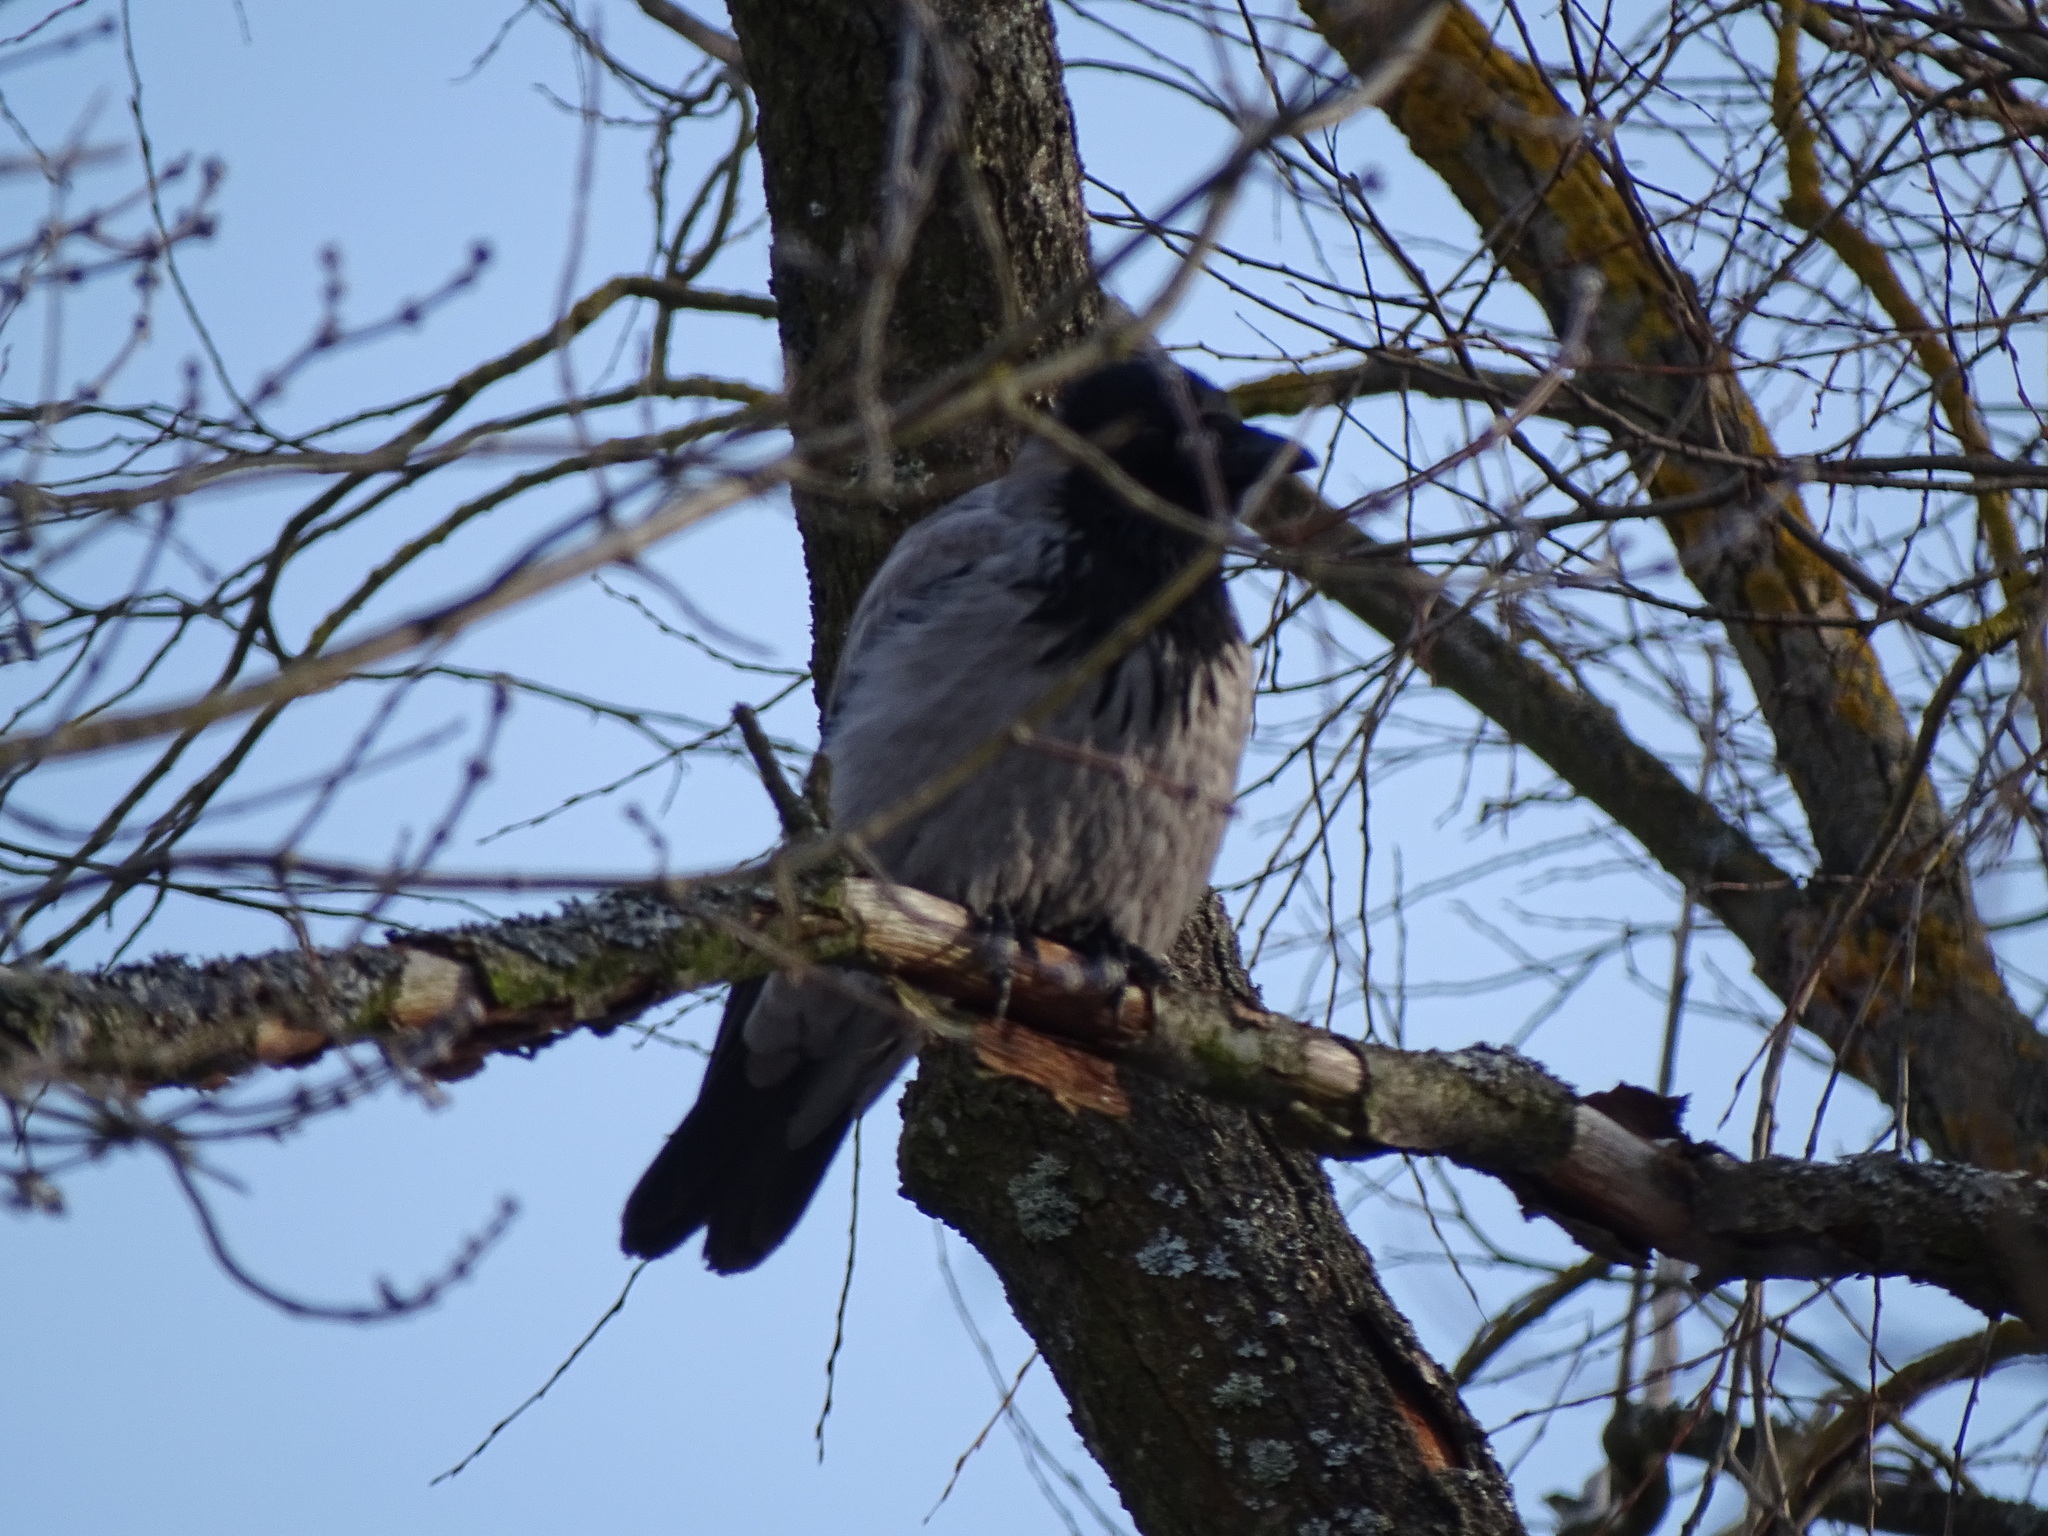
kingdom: Animalia
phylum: Chordata
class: Aves
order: Passeriformes
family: Corvidae
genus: Corvus
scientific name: Corvus cornix
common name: Hooded crow
